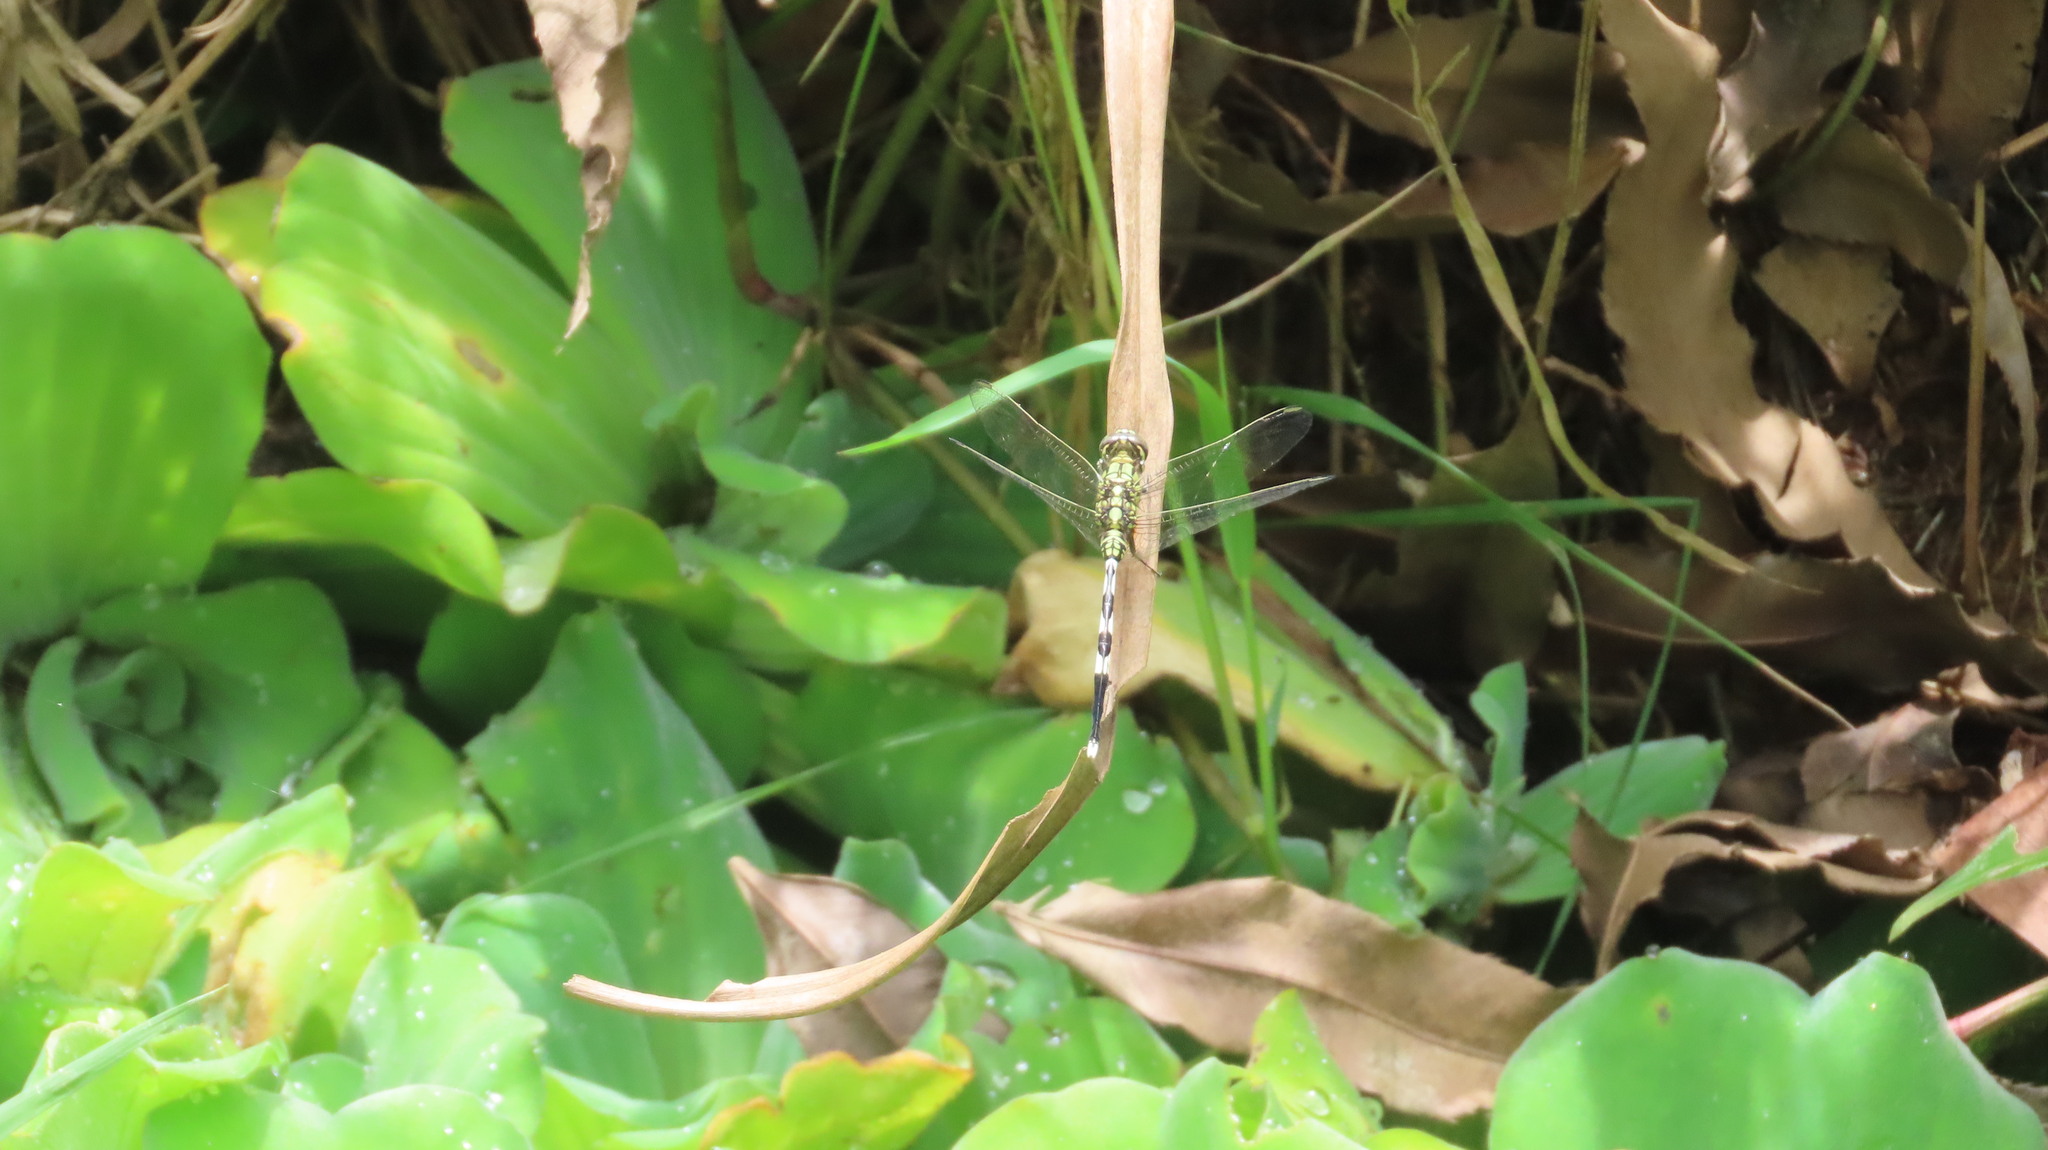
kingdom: Animalia
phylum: Arthropoda
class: Insecta
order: Odonata
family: Libellulidae
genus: Orthetrum
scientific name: Orthetrum sabina
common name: Slender skimmer
